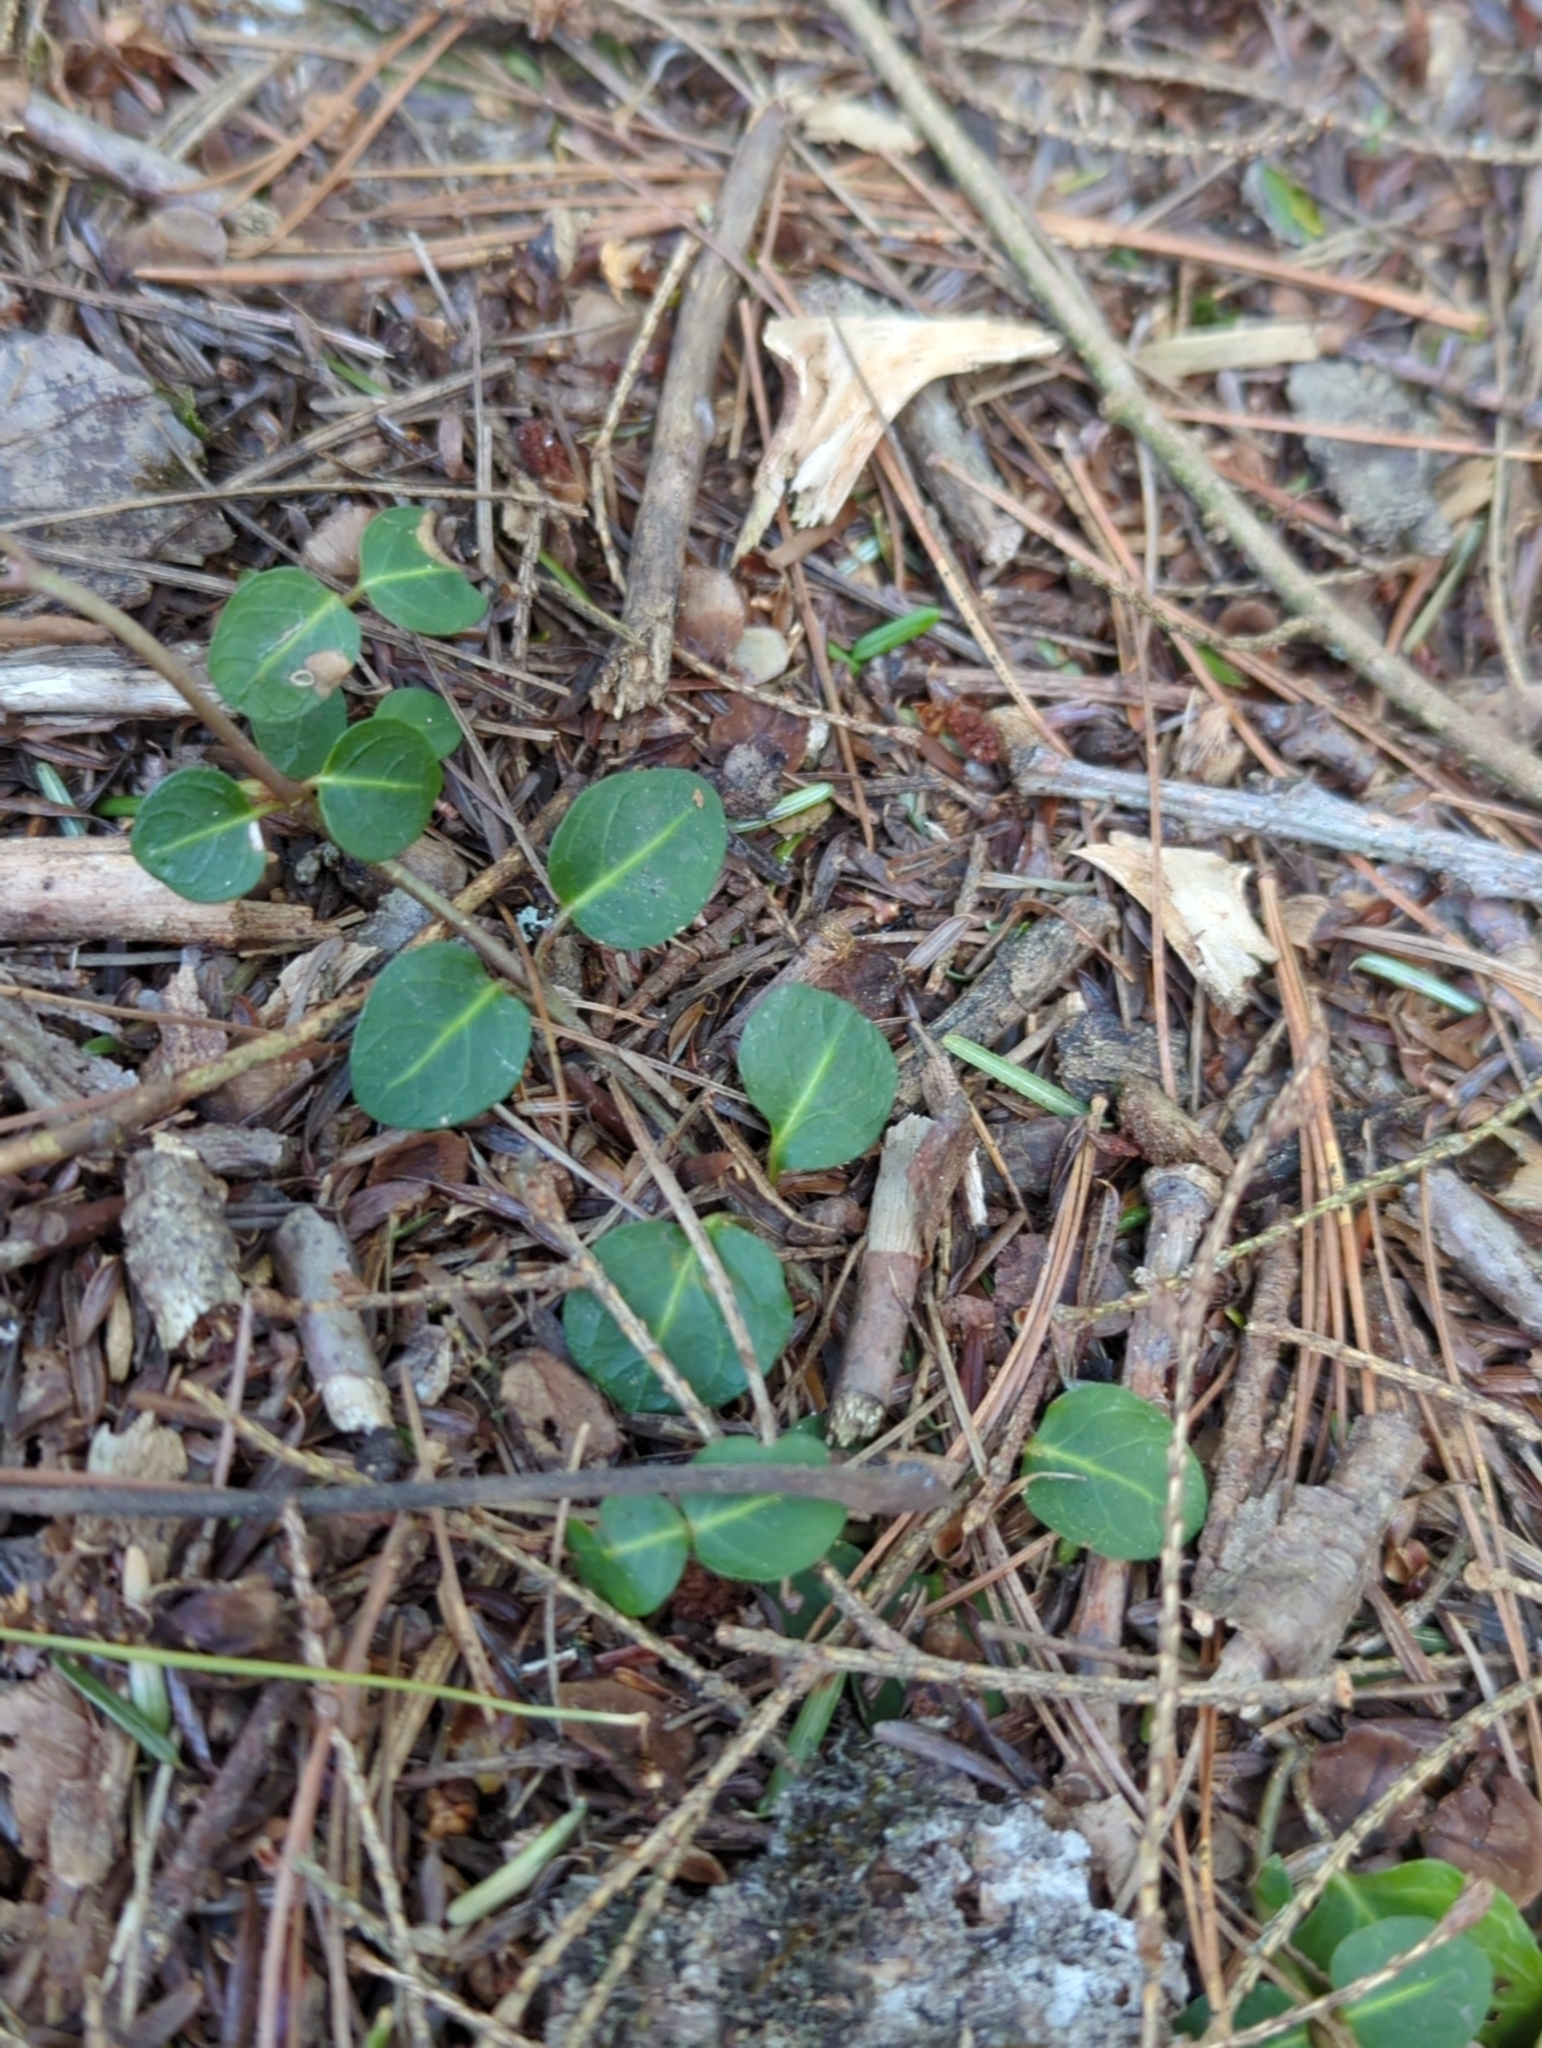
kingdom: Plantae
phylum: Tracheophyta
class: Magnoliopsida
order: Gentianales
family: Rubiaceae
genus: Mitchella
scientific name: Mitchella repens
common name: Partridge-berry
